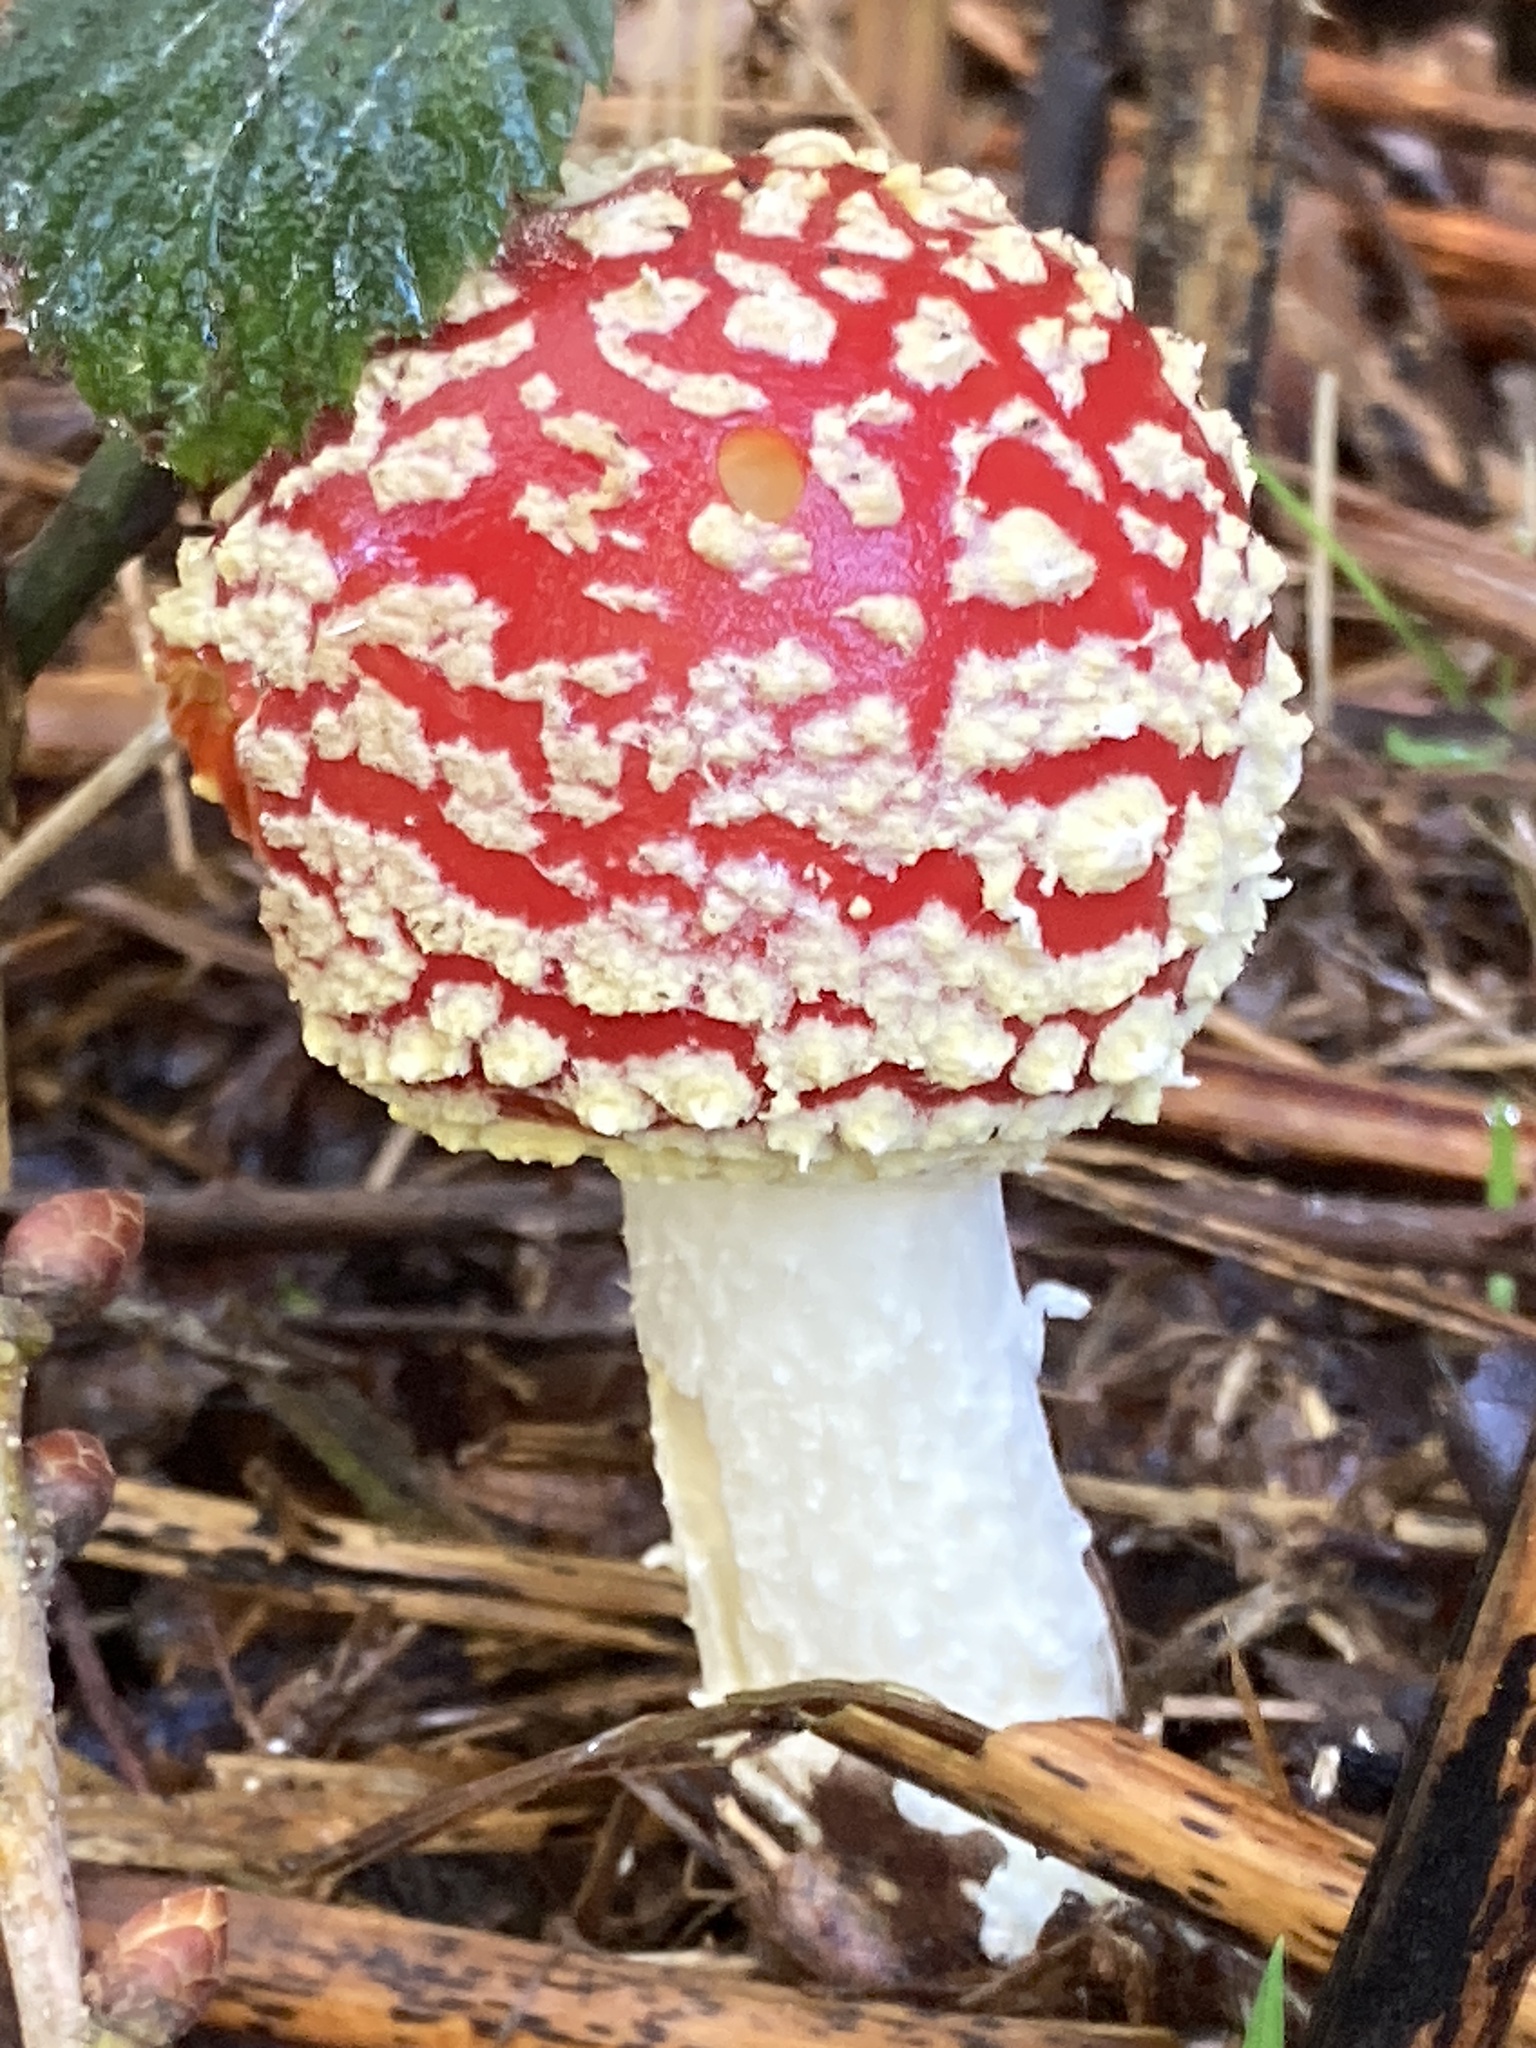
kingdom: Fungi
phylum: Basidiomycota
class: Agaricomycetes
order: Agaricales
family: Amanitaceae
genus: Amanita
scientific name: Amanita muscaria
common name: Fly agaric
